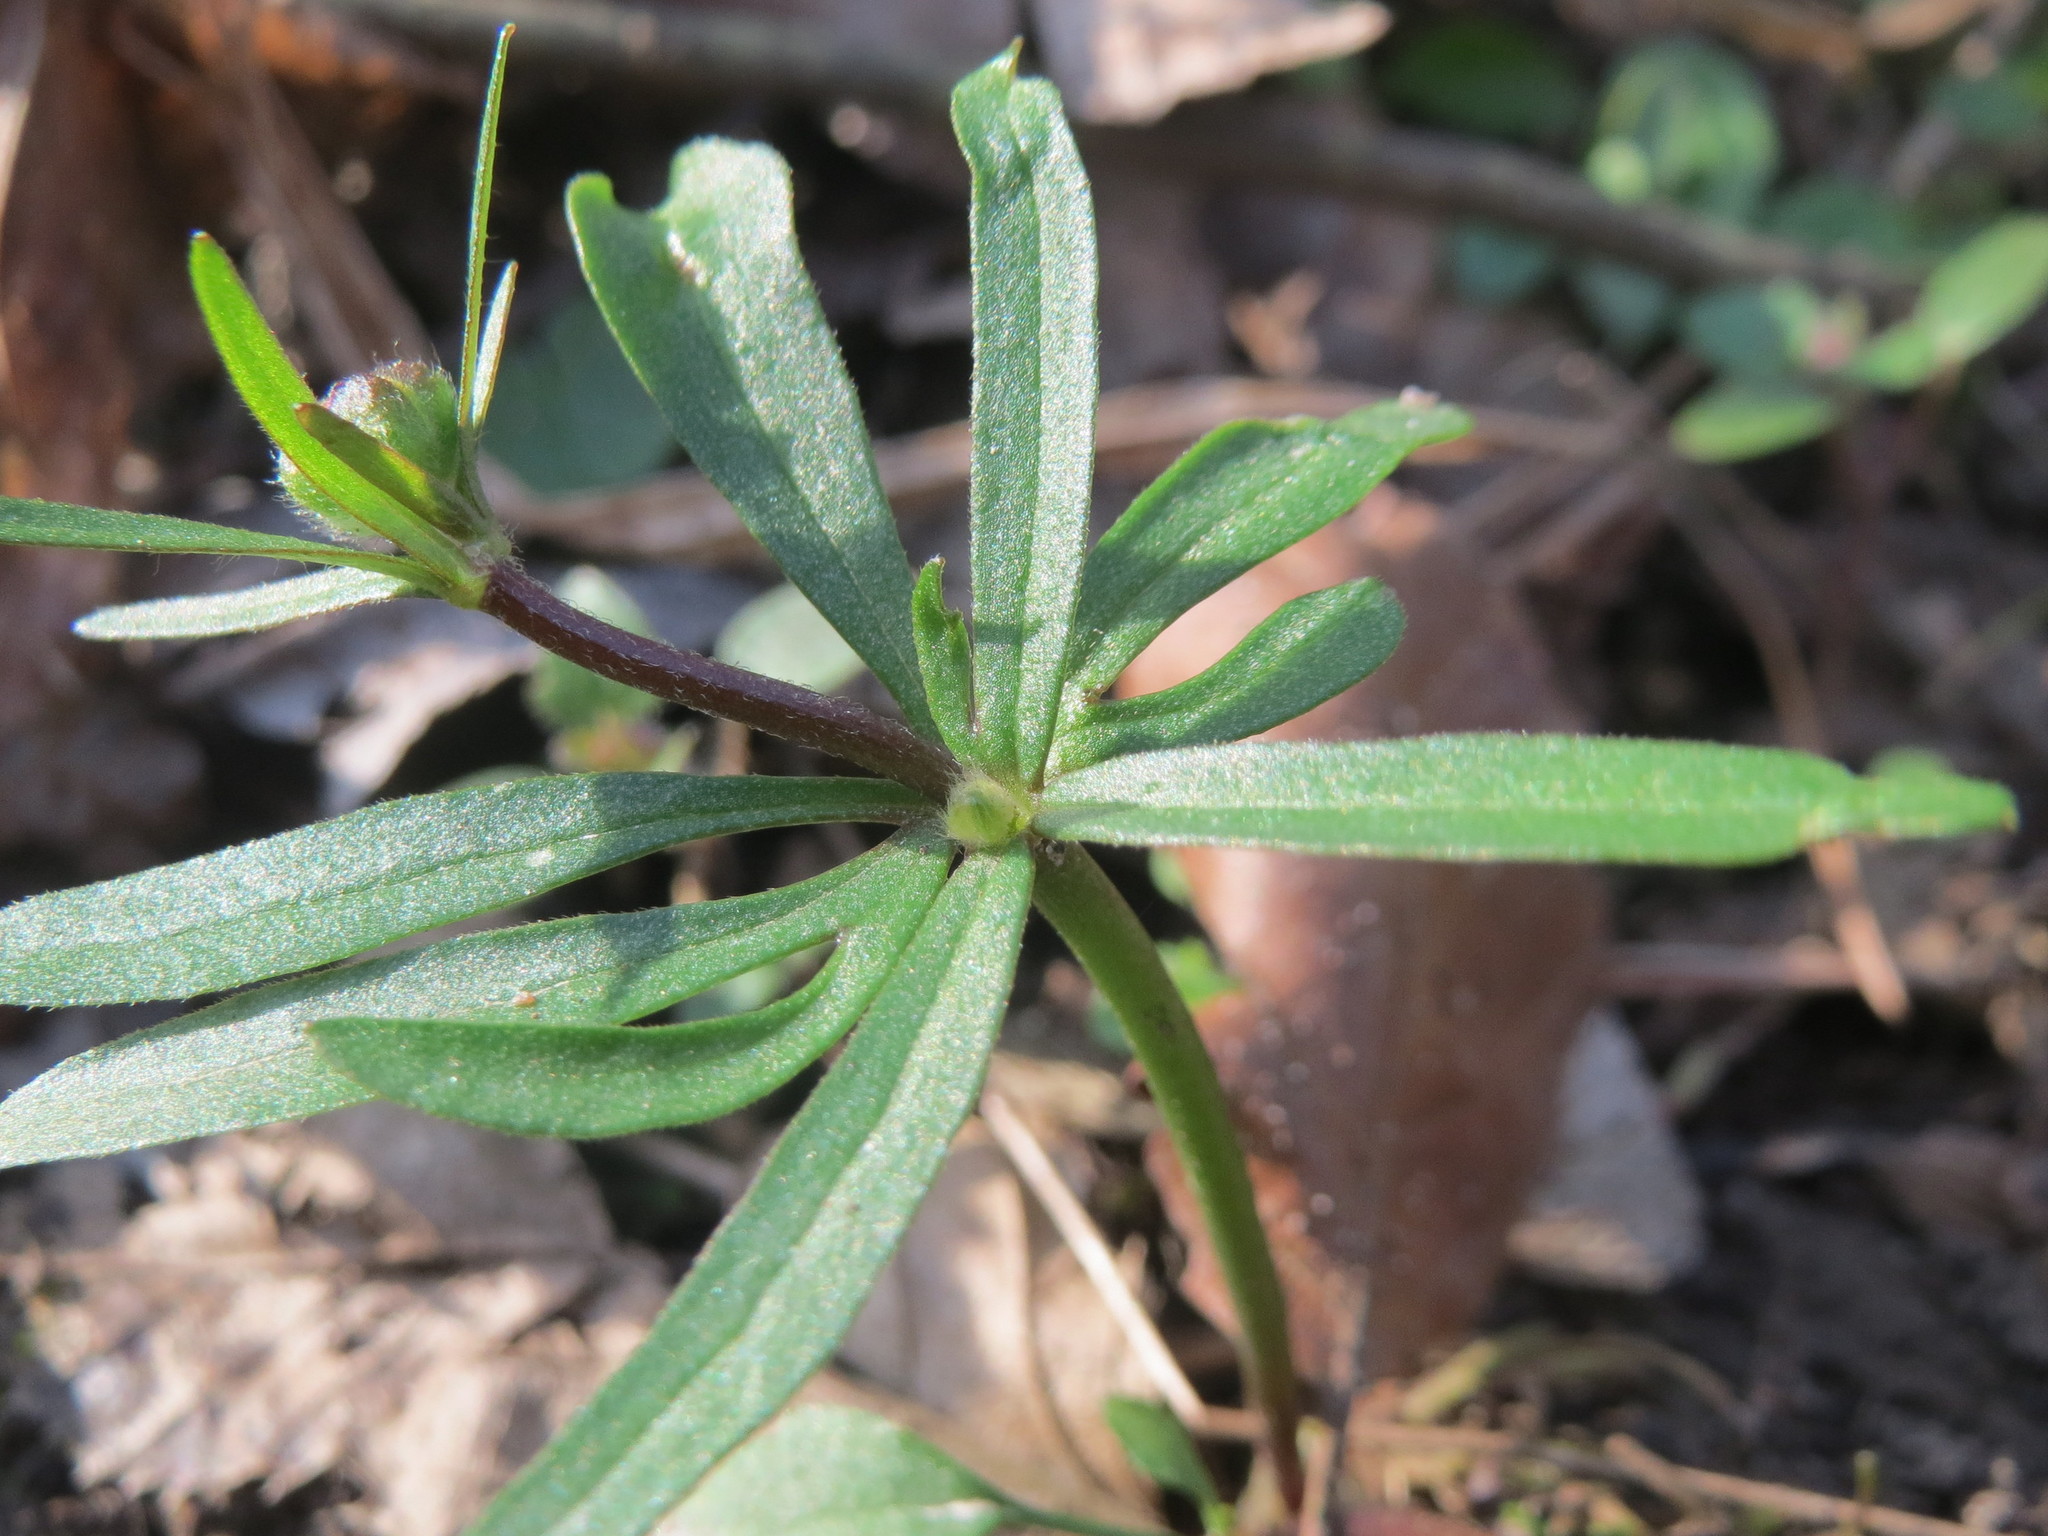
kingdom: Plantae
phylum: Tracheophyta
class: Magnoliopsida
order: Ranunculales
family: Ranunculaceae
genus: Ranunculus
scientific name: Ranunculus
